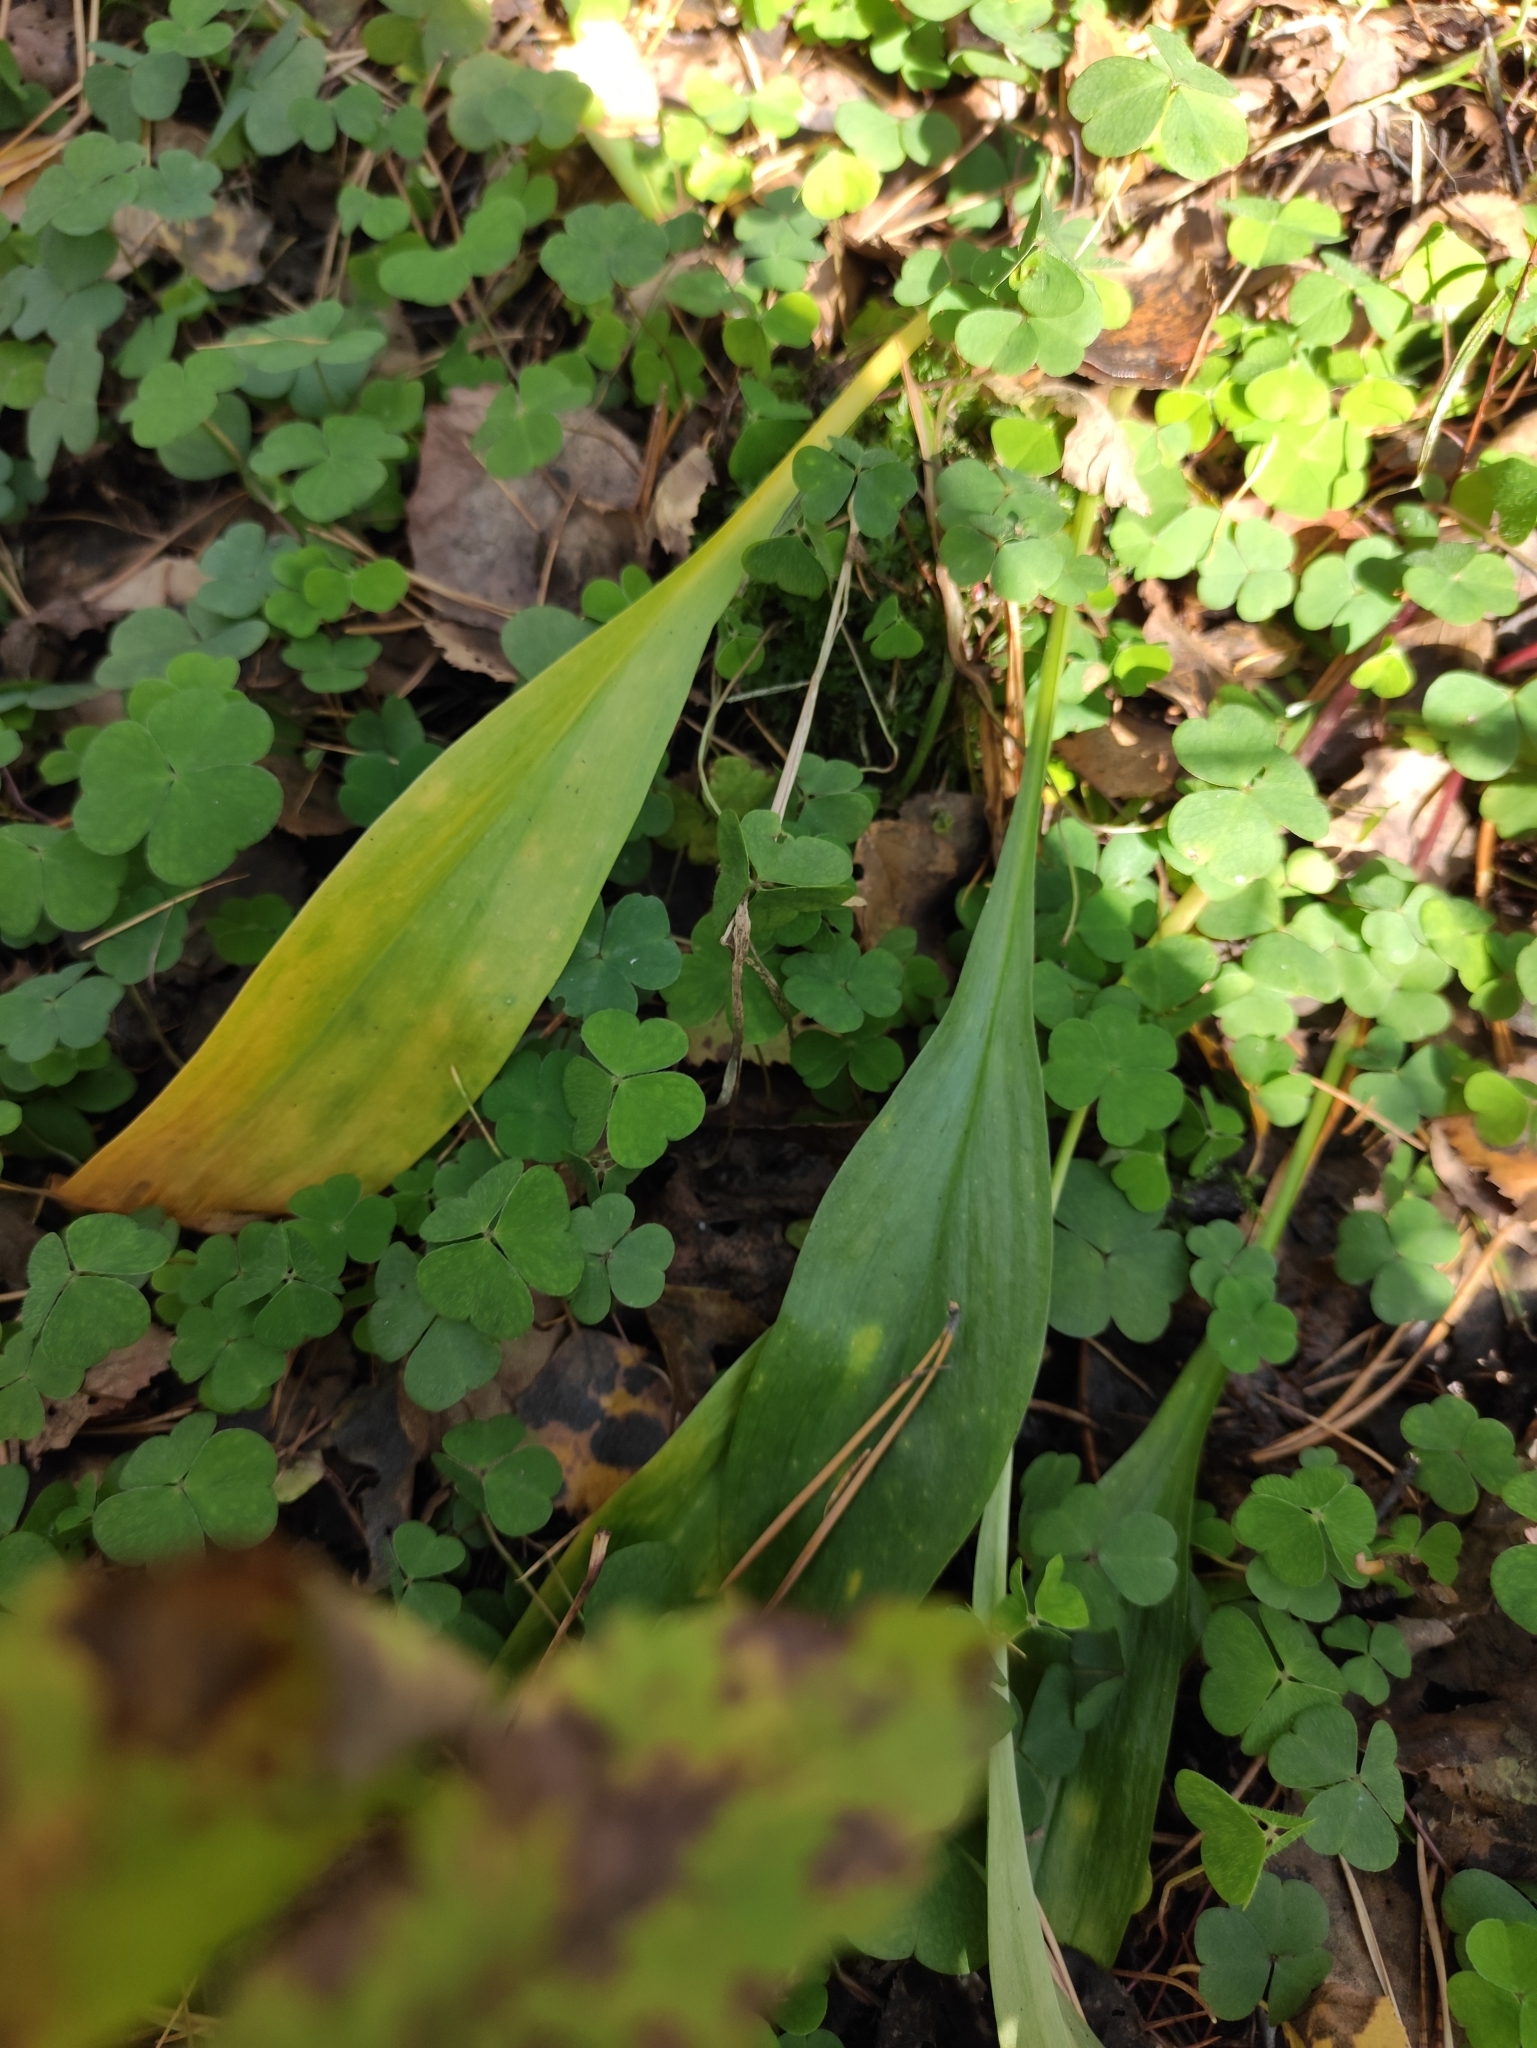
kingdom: Plantae
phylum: Tracheophyta
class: Liliopsida
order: Asparagales
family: Amaryllidaceae
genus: Allium
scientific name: Allium microdictyon
